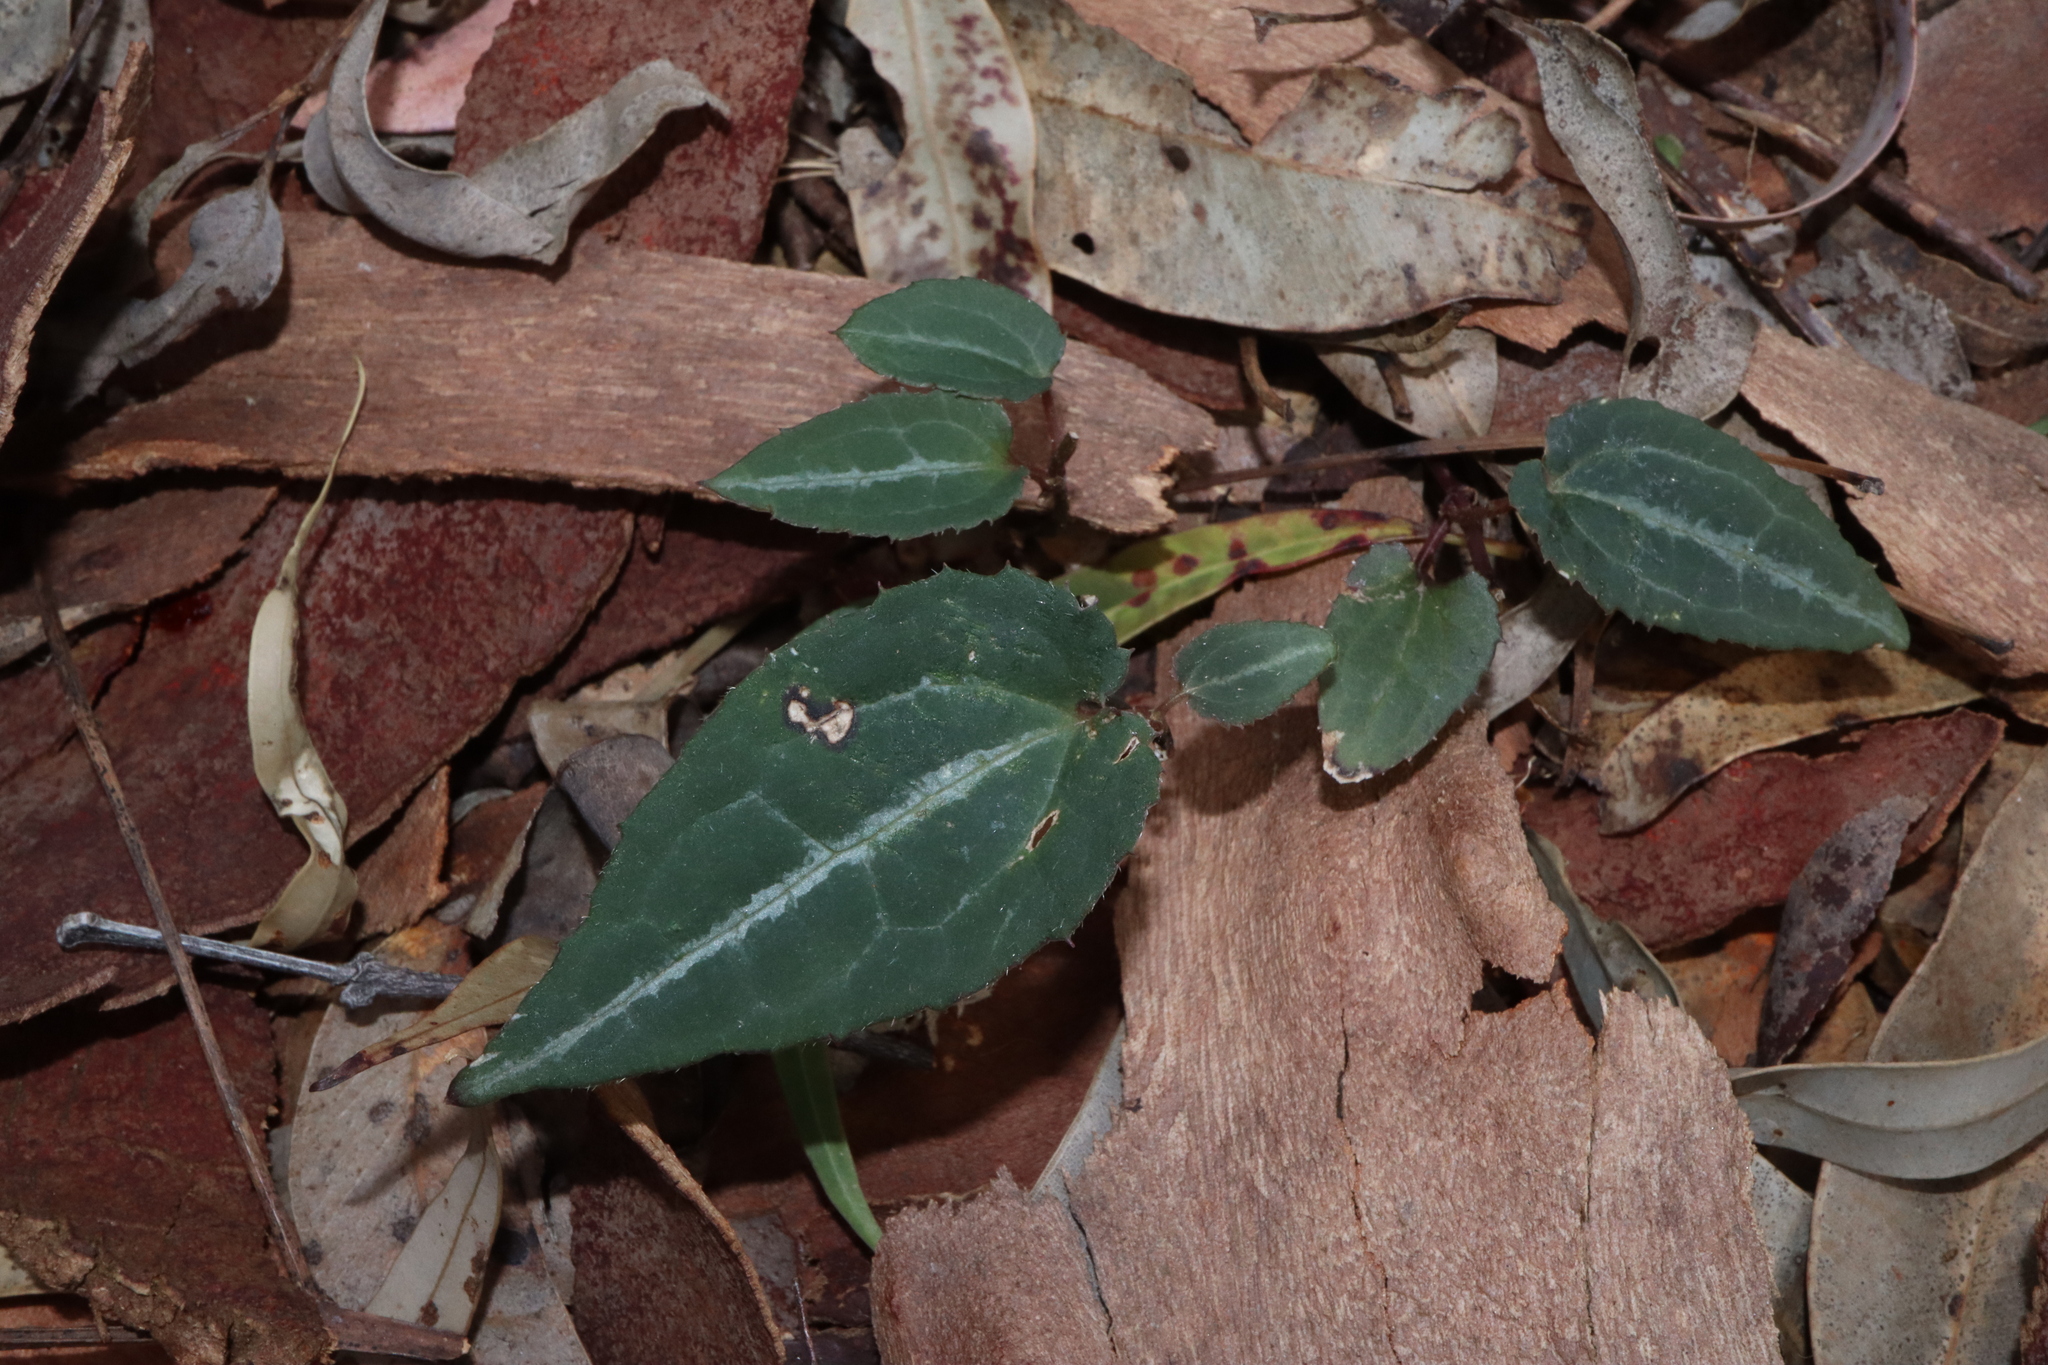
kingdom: Plantae
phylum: Tracheophyta
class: Magnoliopsida
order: Ranunculales
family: Ranunculaceae
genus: Clematis
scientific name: Clematis aristata
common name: Mountain clematis
